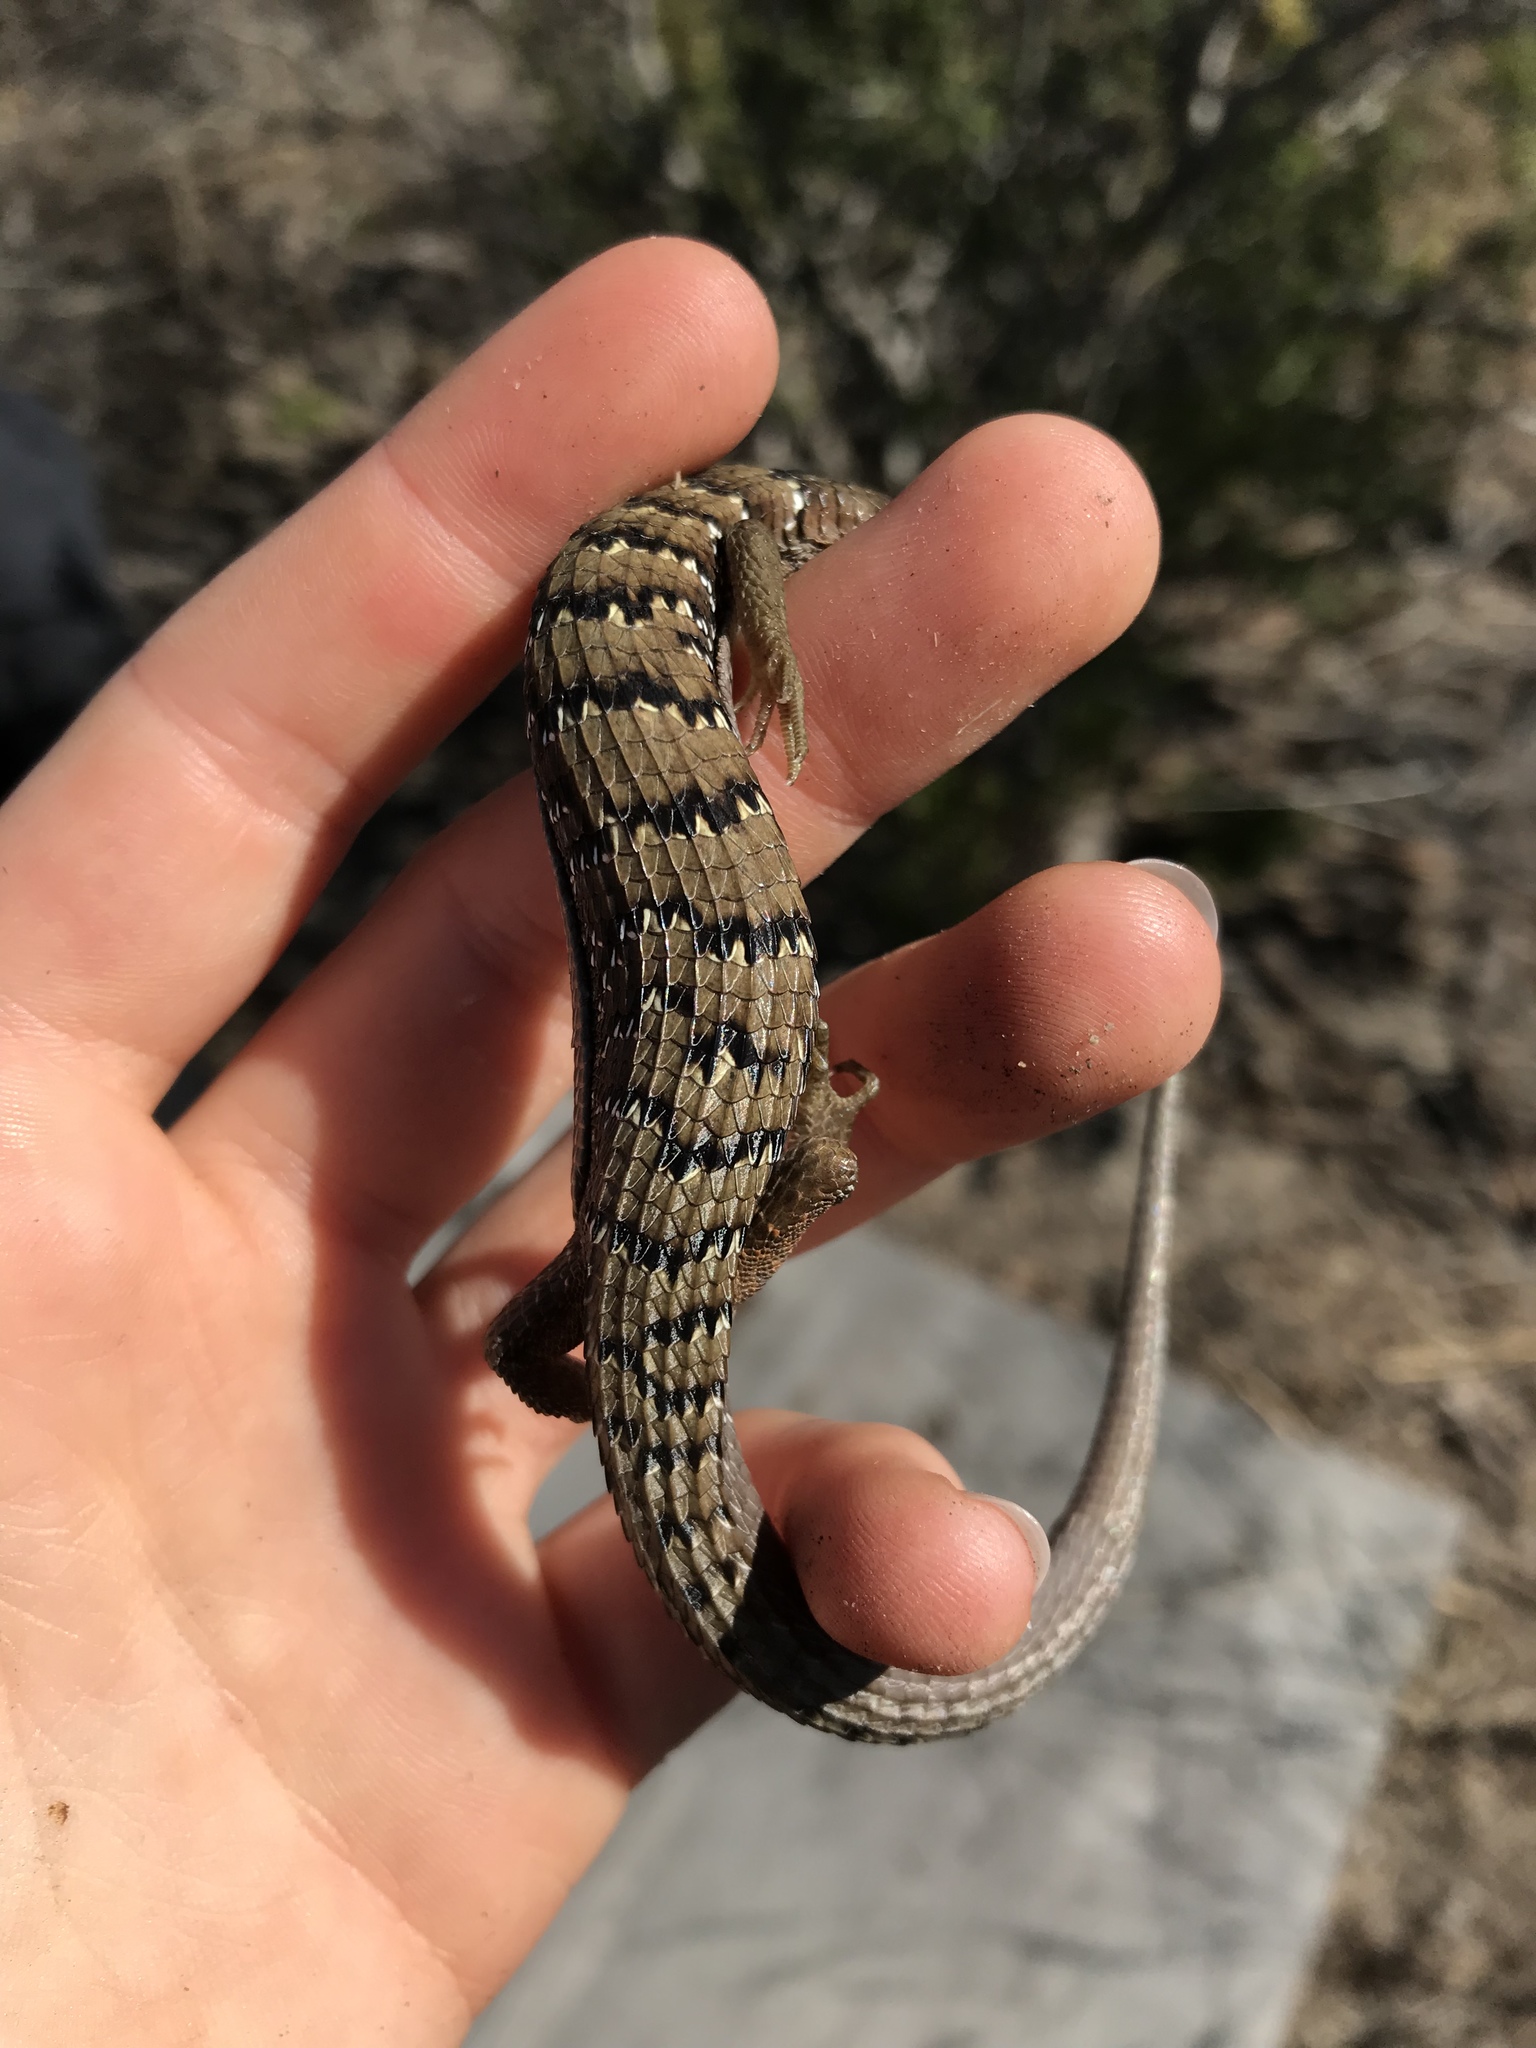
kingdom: Animalia
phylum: Chordata
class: Squamata
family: Anguidae
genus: Elgaria
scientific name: Elgaria multicarinata
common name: Southern alligator lizard
